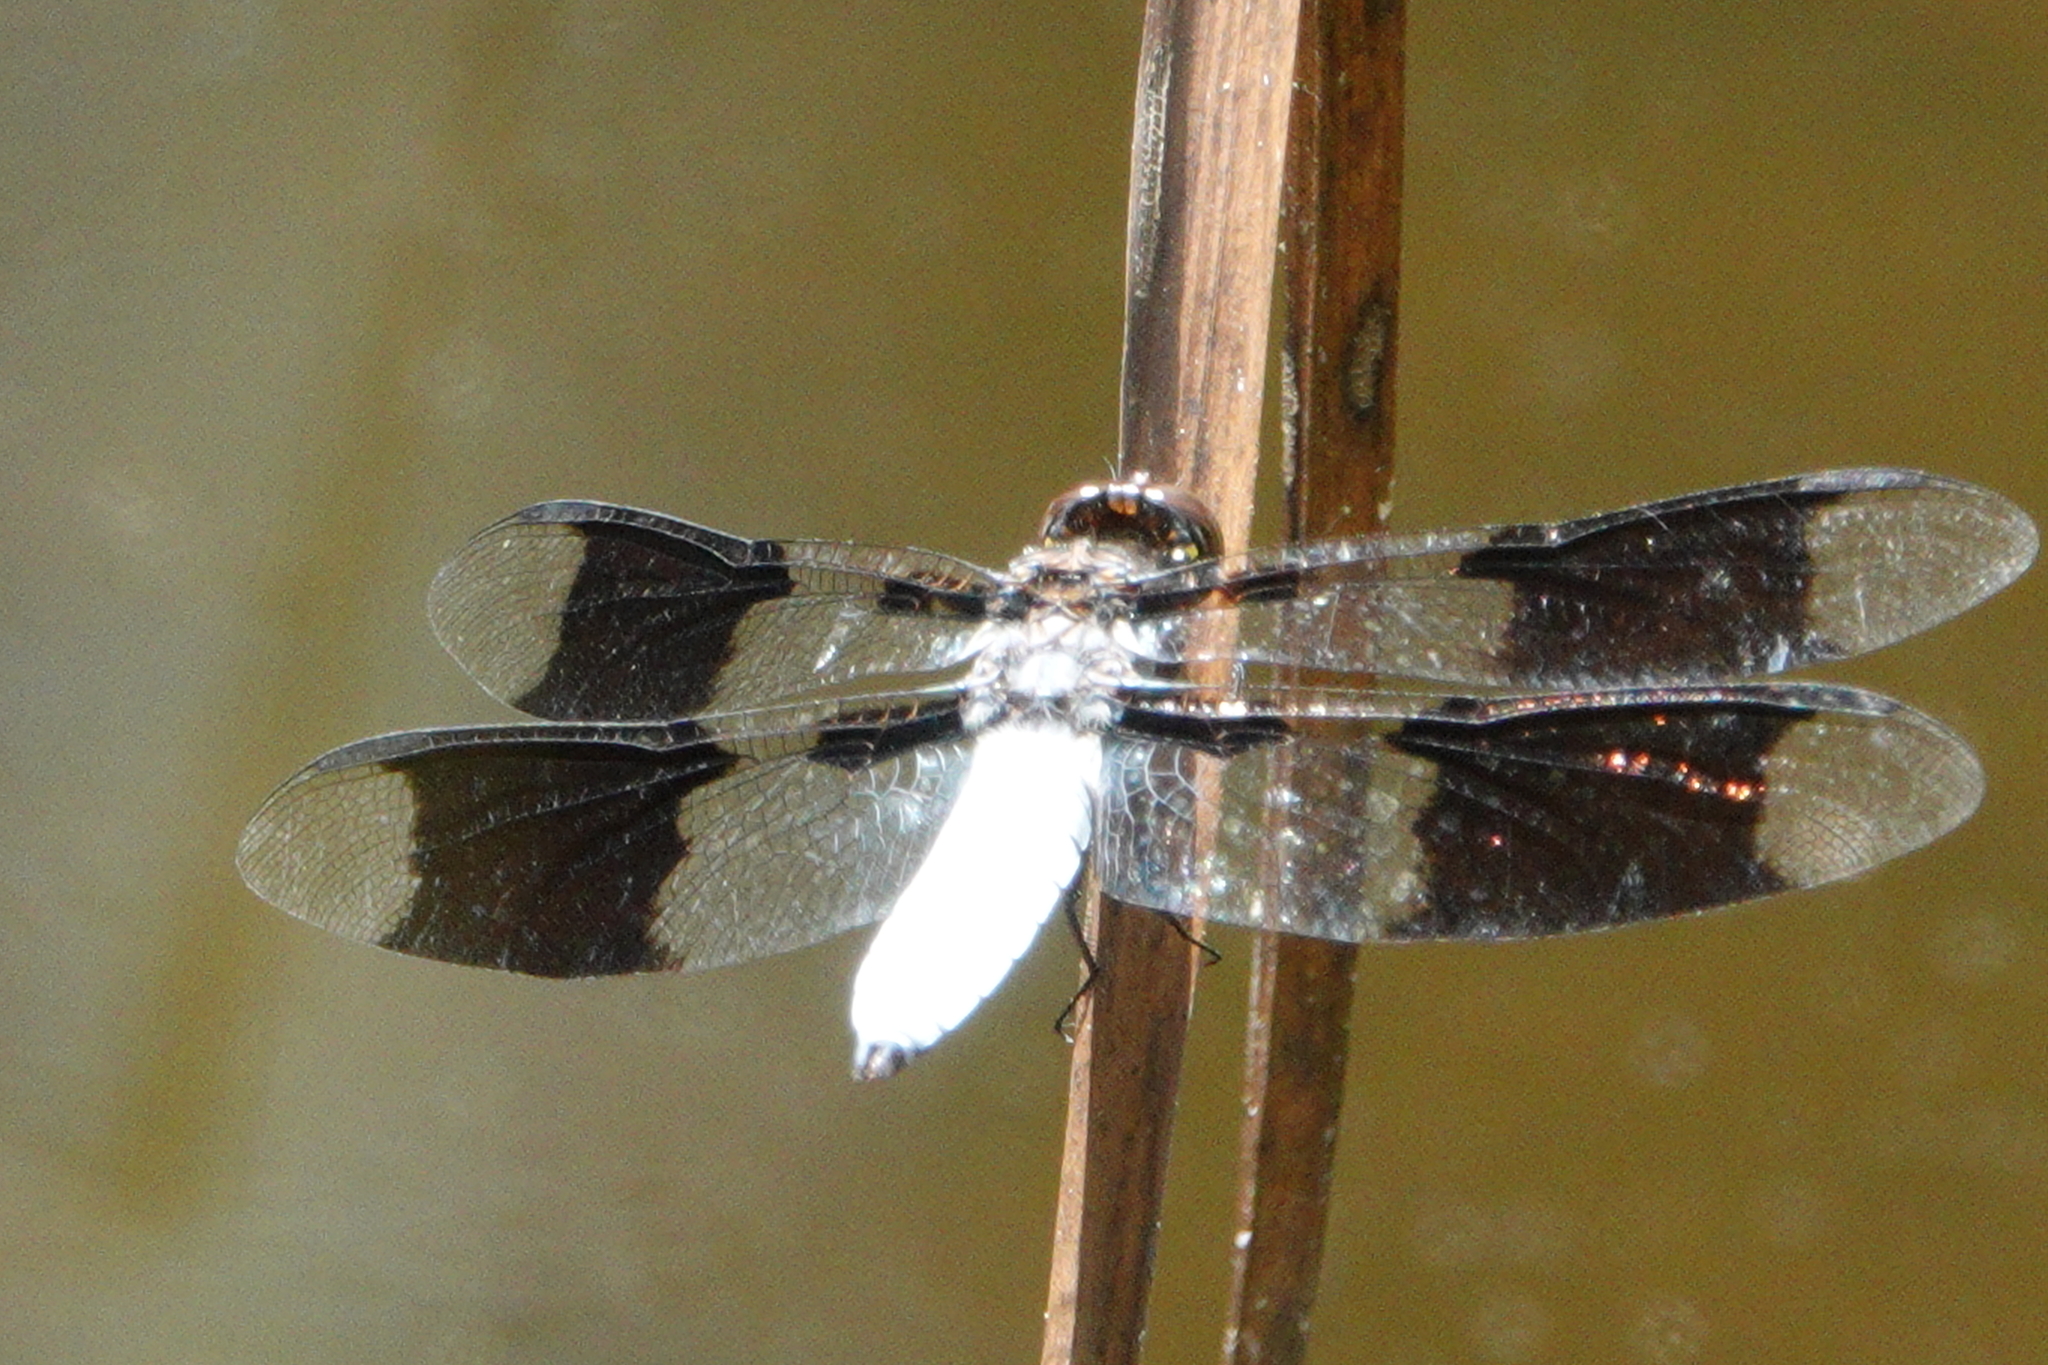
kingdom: Animalia
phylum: Arthropoda
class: Insecta
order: Odonata
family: Libellulidae
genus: Plathemis
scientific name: Plathemis lydia
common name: Common whitetail
